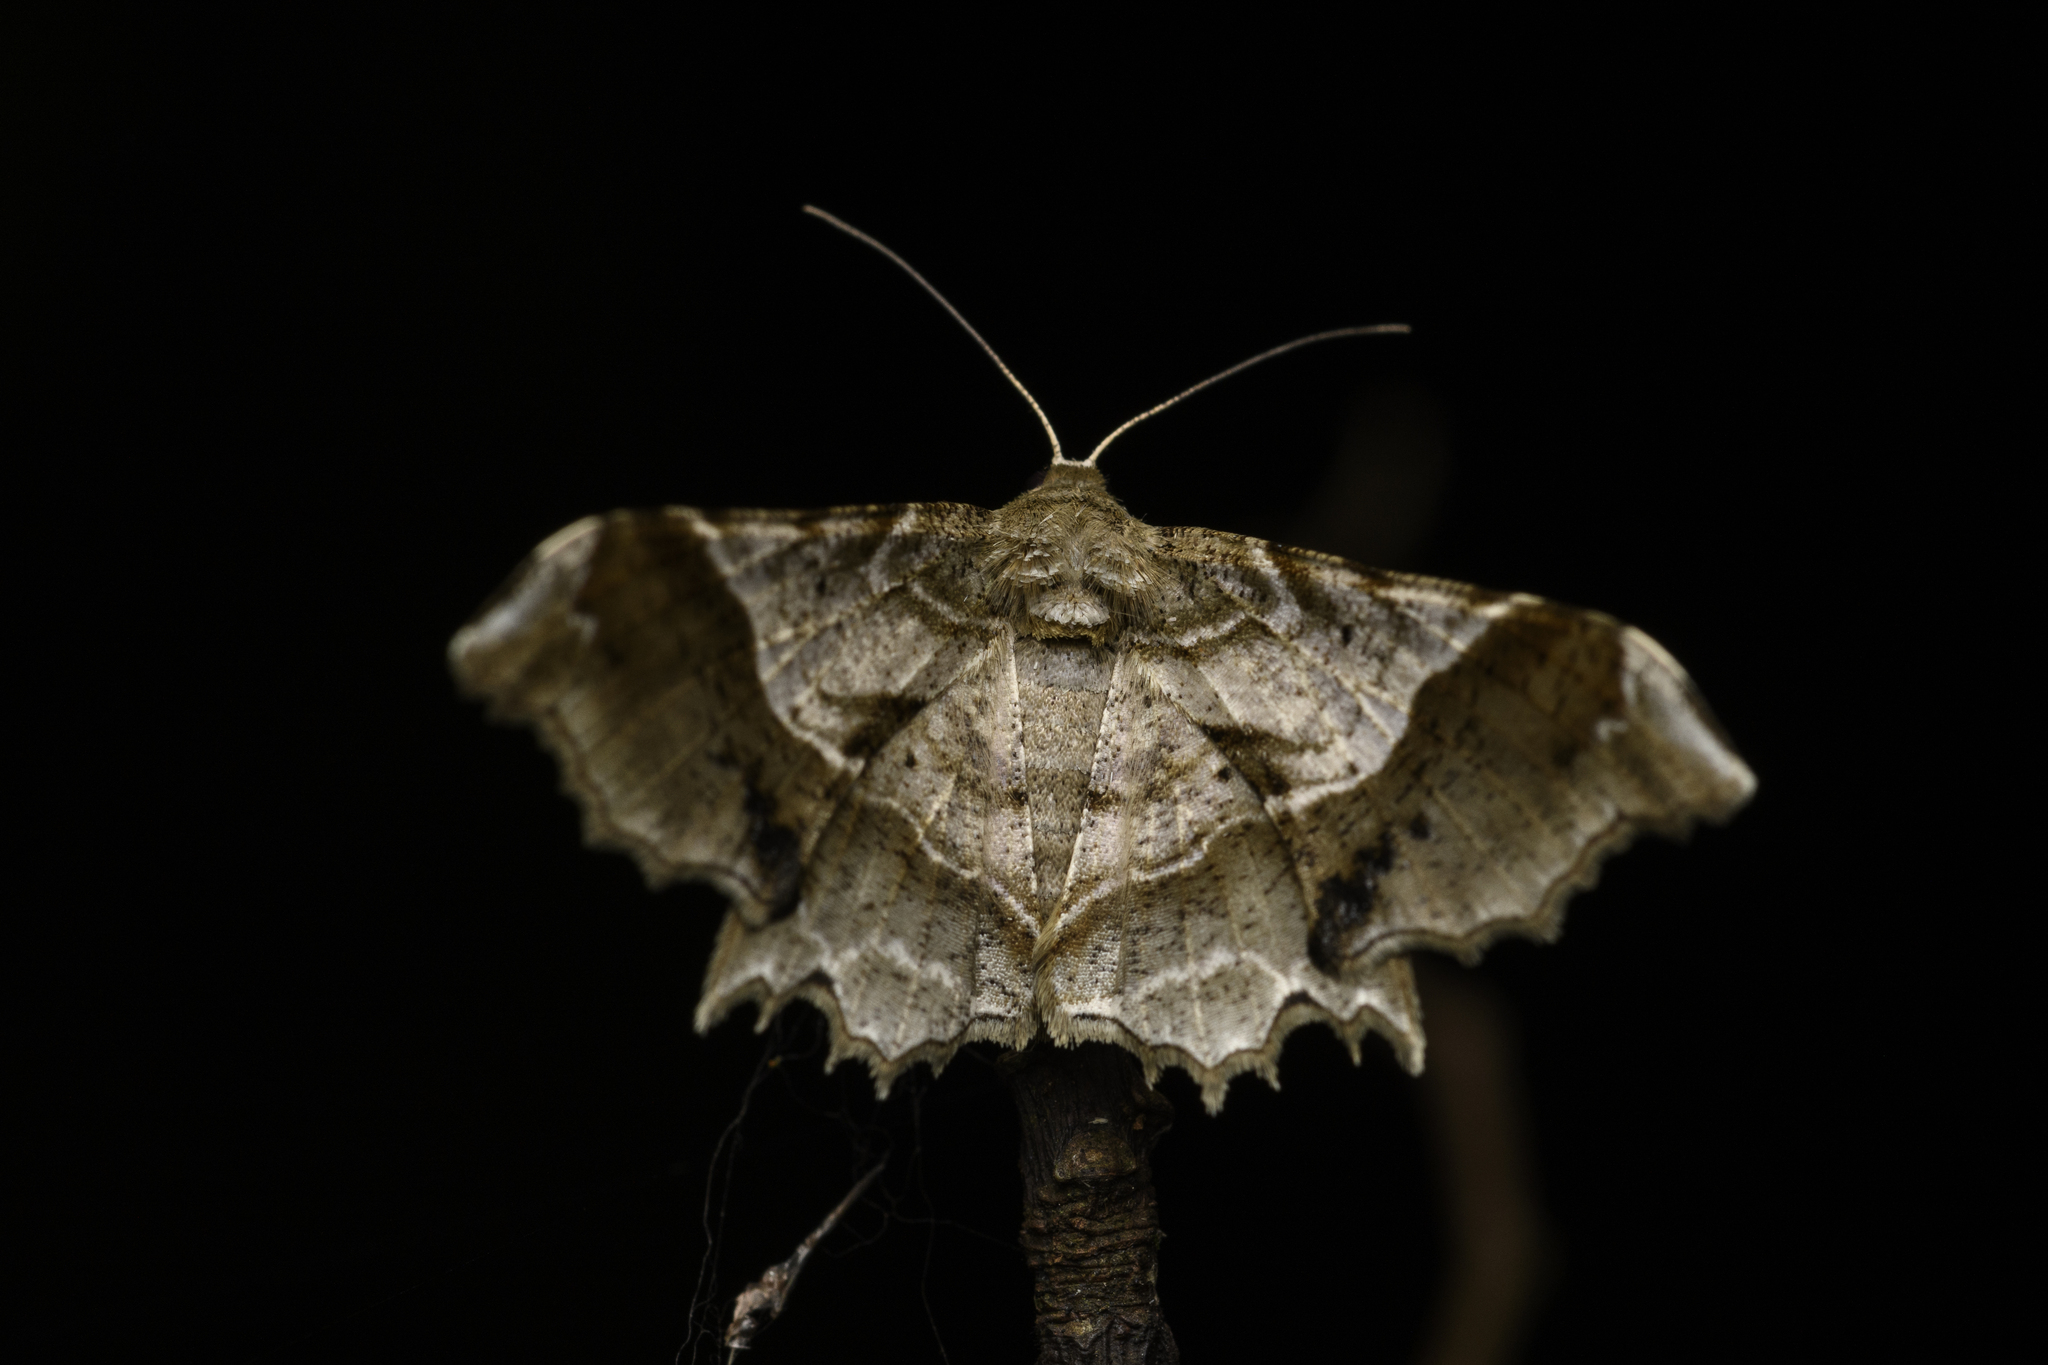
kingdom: Animalia
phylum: Arthropoda
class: Insecta
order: Lepidoptera
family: Geometridae
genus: Krananda
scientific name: Krananda oliveomarginata
